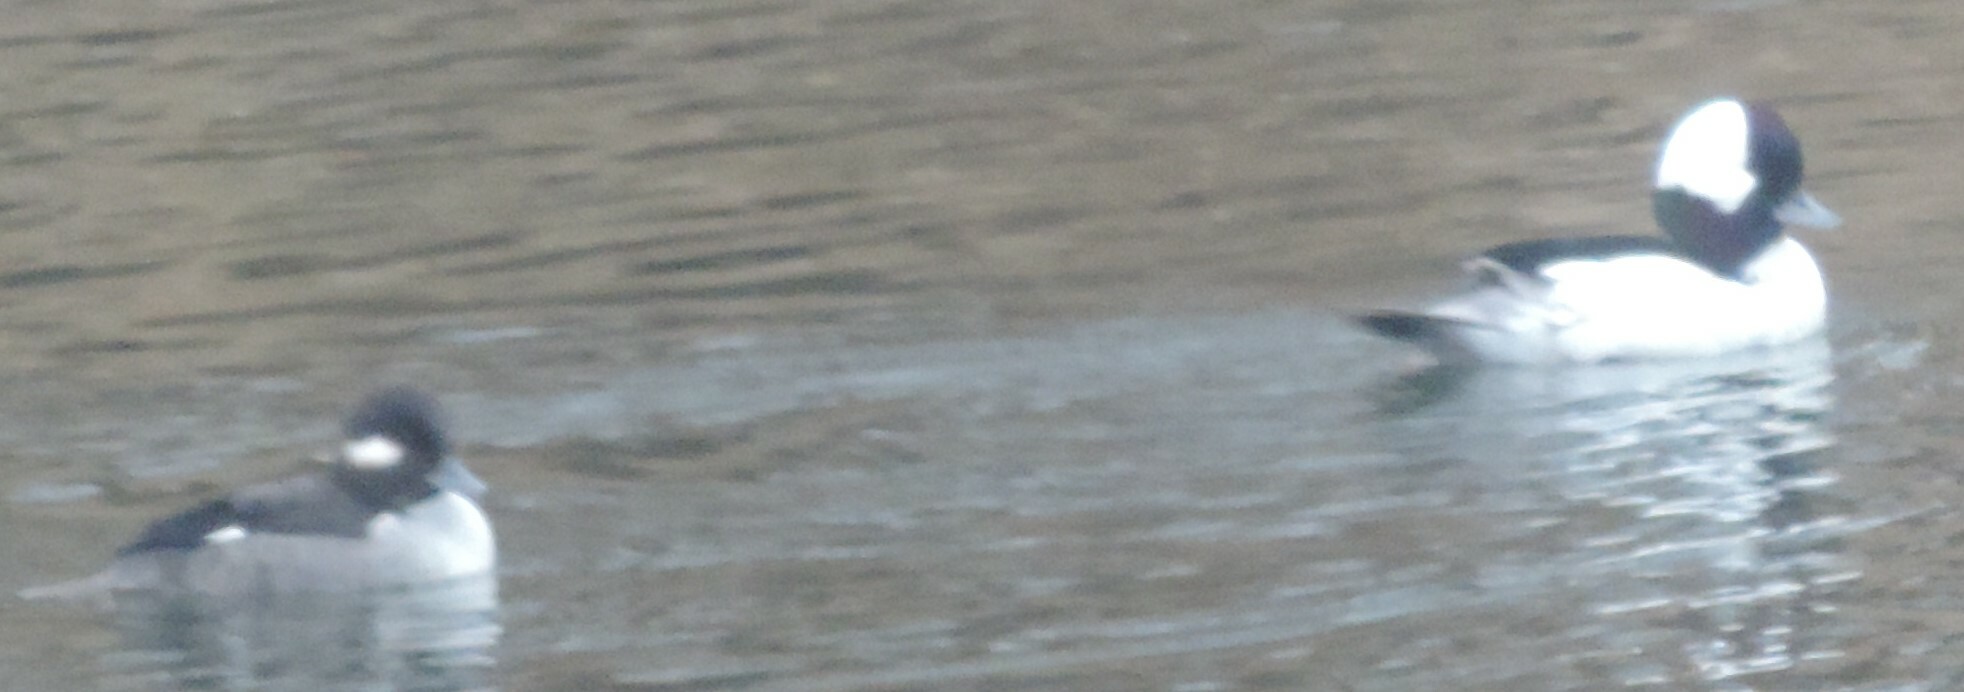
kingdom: Animalia
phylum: Chordata
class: Aves
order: Anseriformes
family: Anatidae
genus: Bucephala
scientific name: Bucephala albeola
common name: Bufflehead
